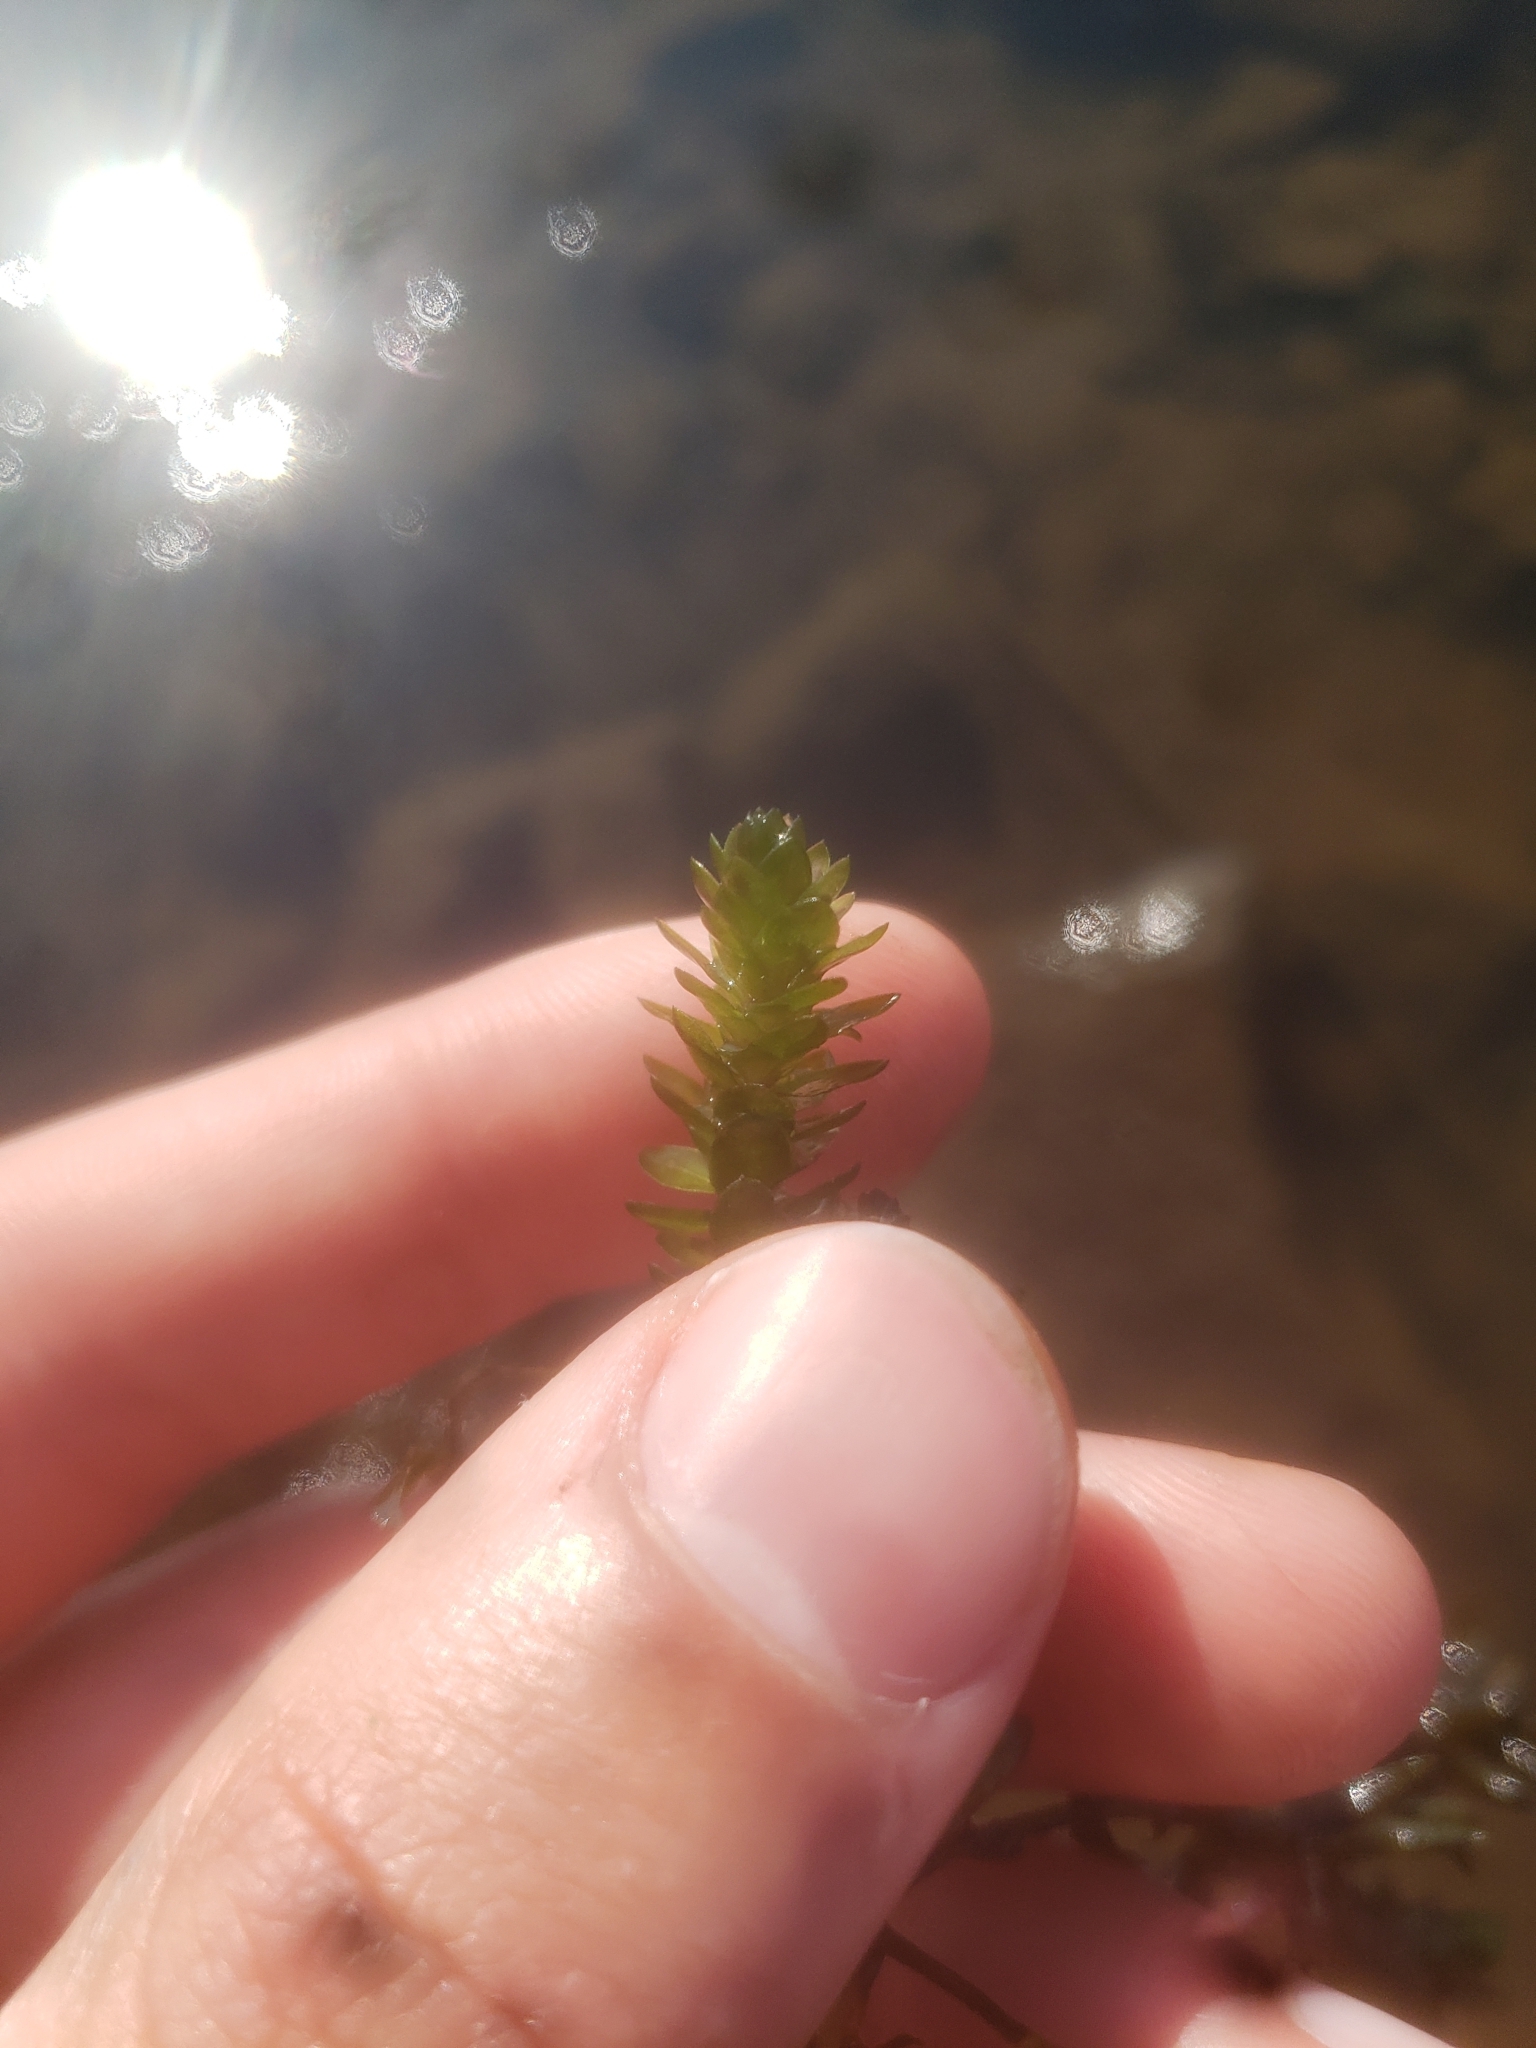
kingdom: Plantae
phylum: Tracheophyta
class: Liliopsida
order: Alismatales
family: Hydrocharitaceae
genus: Elodea
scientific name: Elodea canadensis
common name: Canadian waterweed
